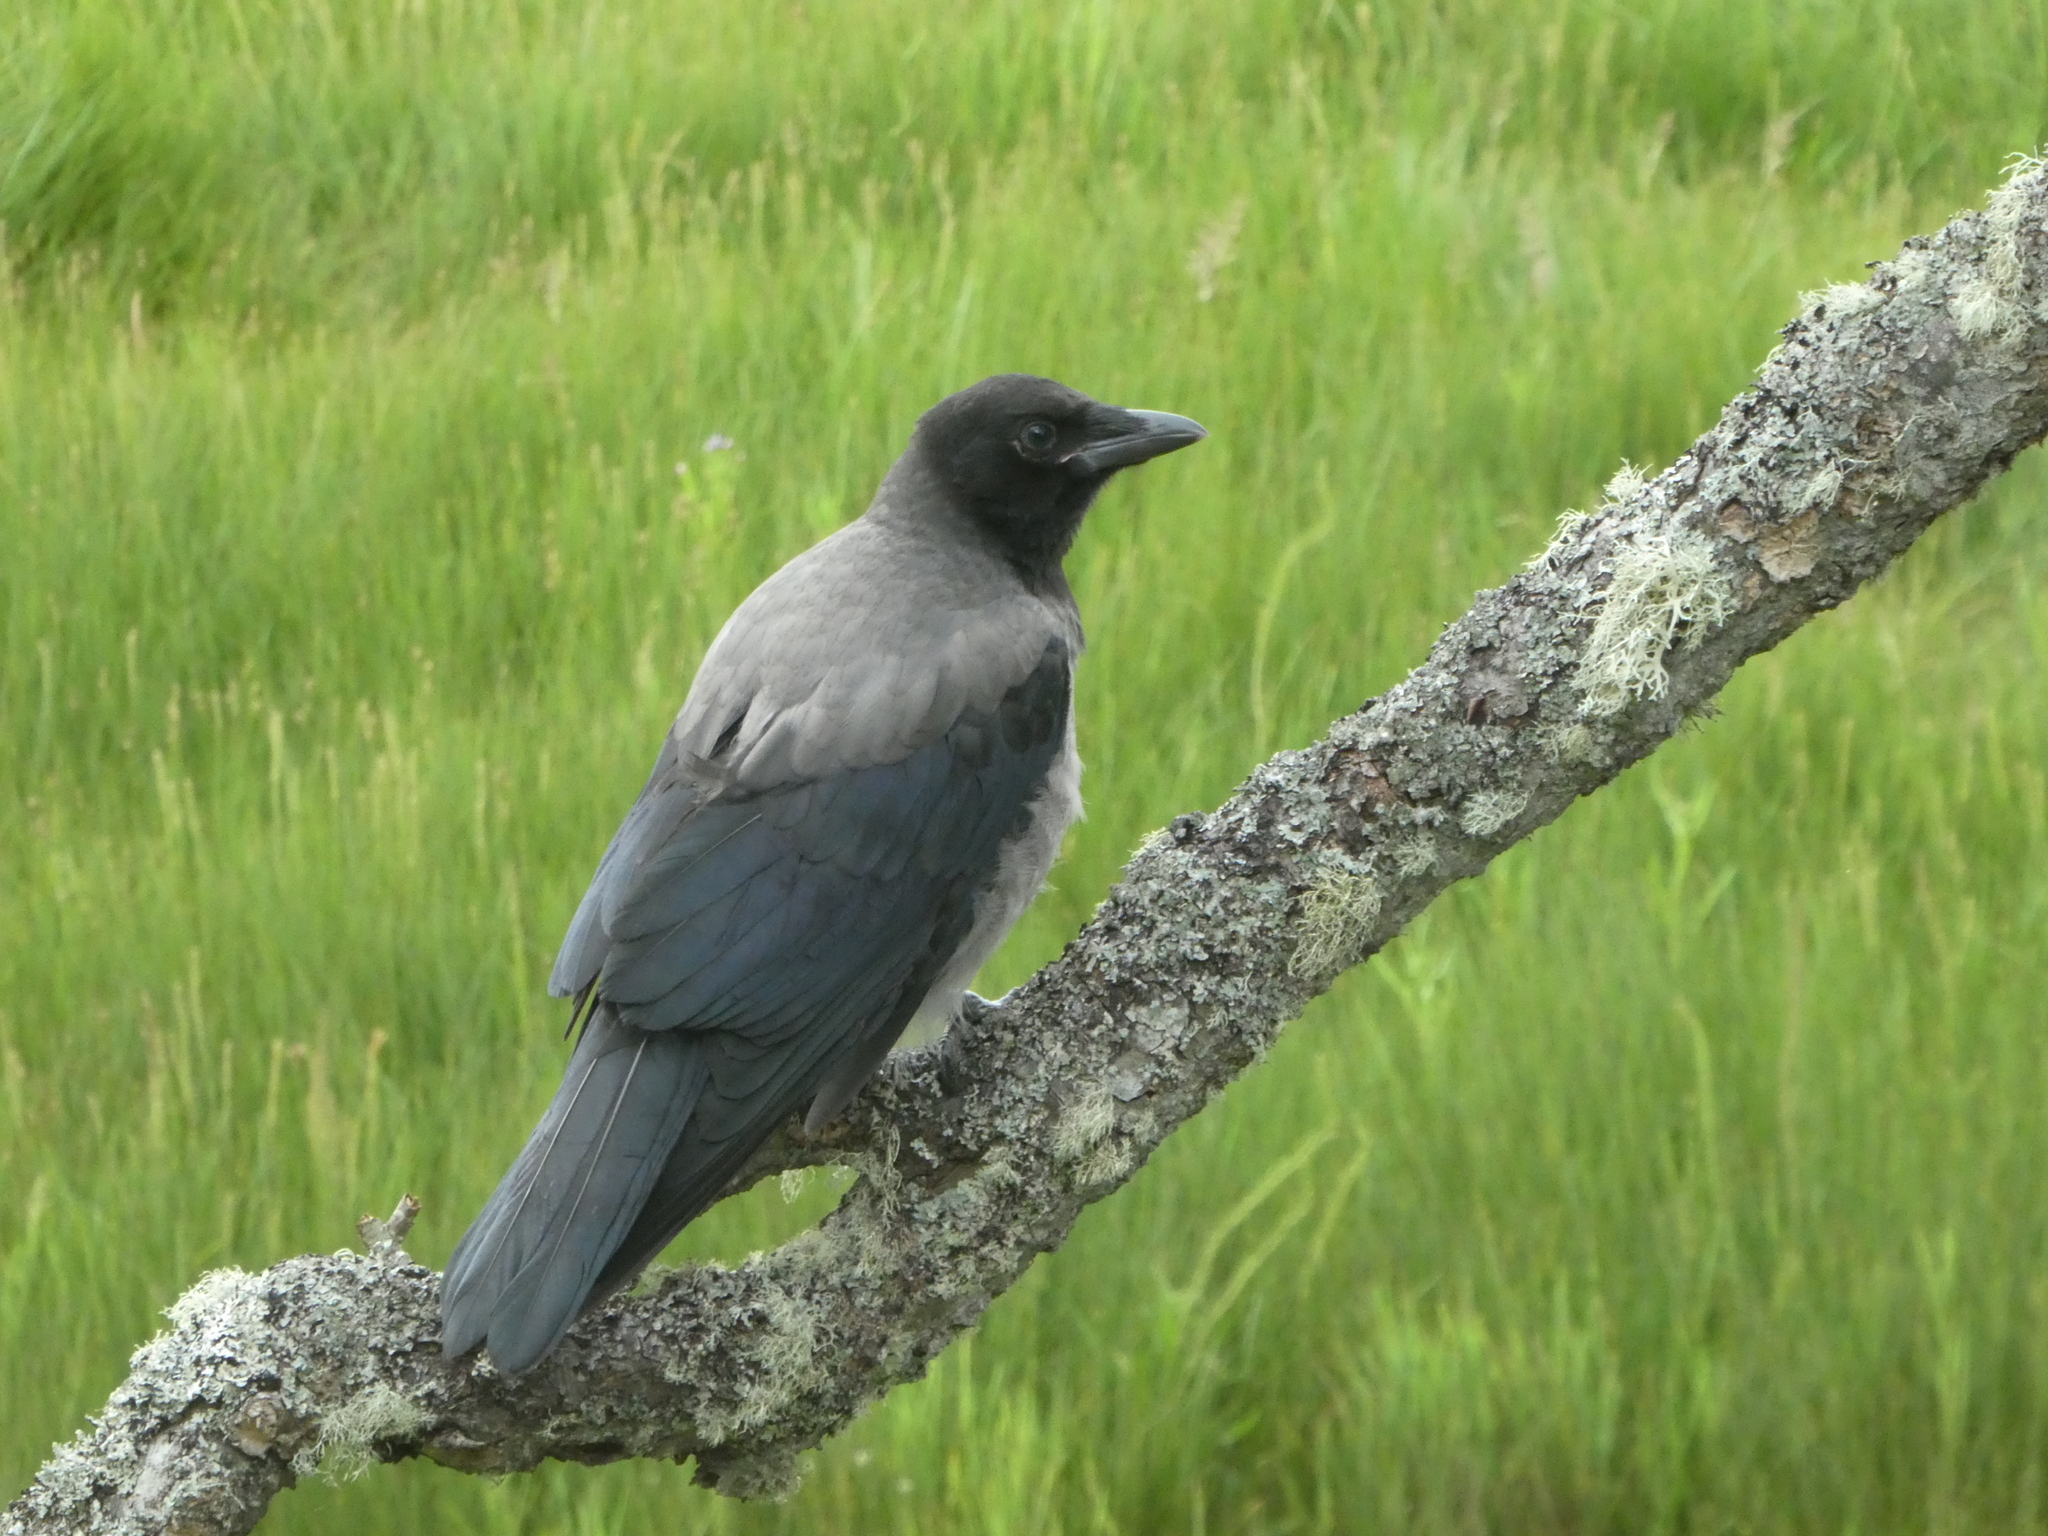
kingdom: Animalia
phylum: Chordata
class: Aves
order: Passeriformes
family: Corvidae
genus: Corvus
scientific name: Corvus cornix
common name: Hooded crow
